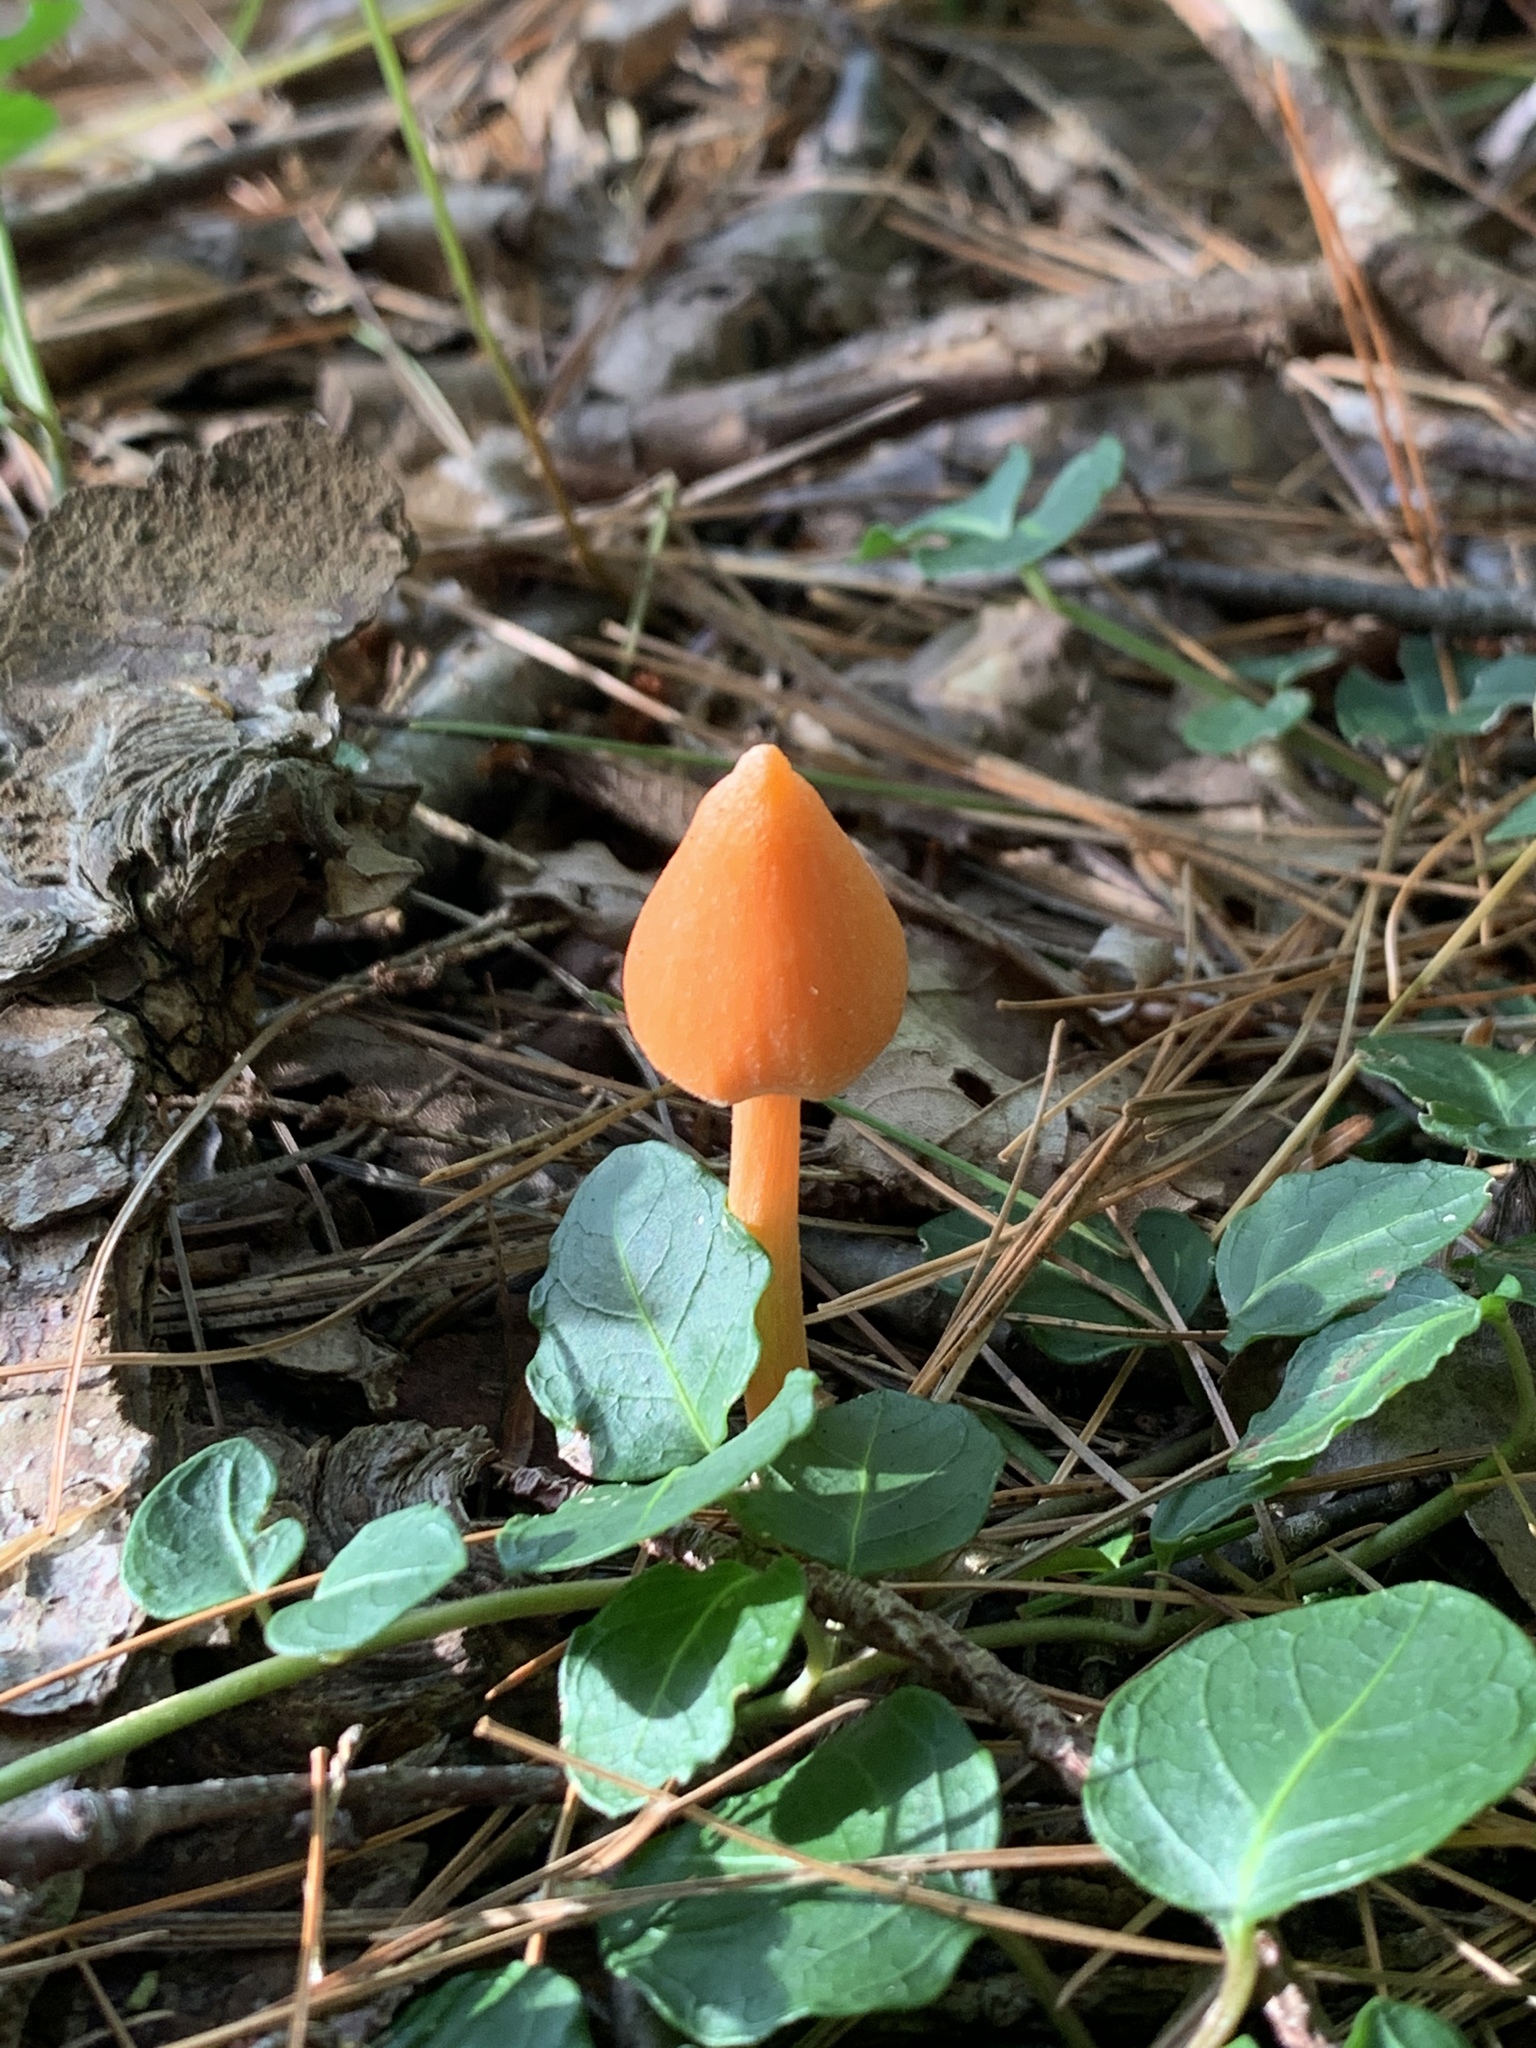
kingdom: Fungi
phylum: Basidiomycota
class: Agaricomycetes
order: Agaricales
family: Entolomataceae
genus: Entoloma
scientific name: Entoloma quadratum
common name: Salmon pinkgill
